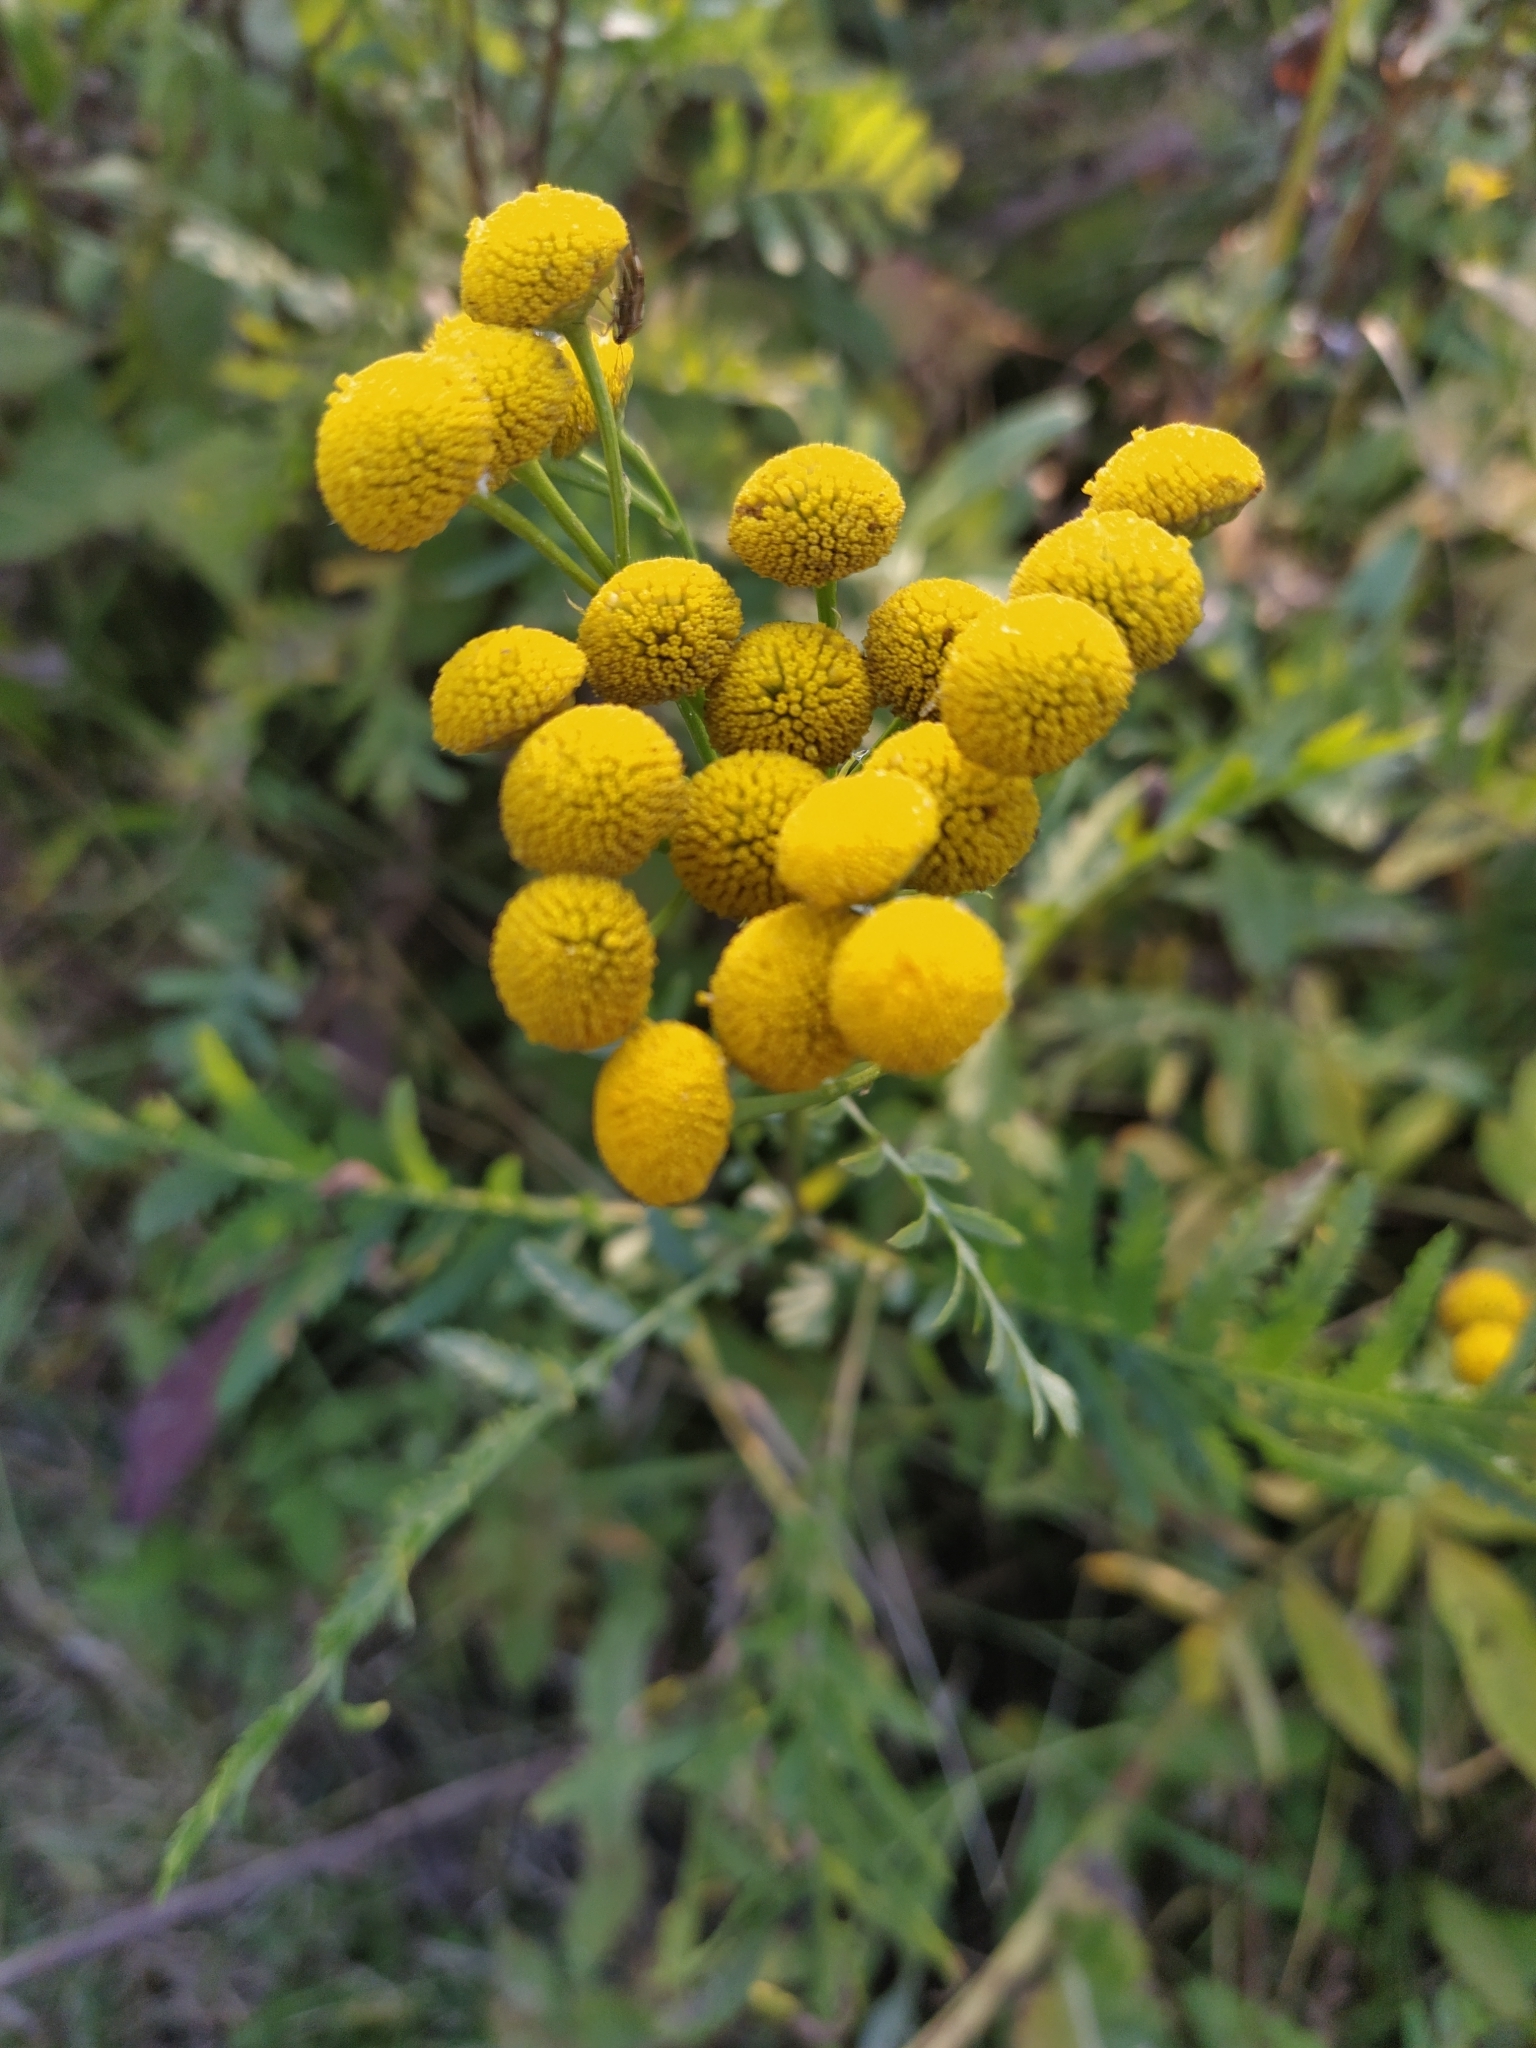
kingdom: Plantae
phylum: Tracheophyta
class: Magnoliopsida
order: Asterales
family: Asteraceae
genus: Tanacetum
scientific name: Tanacetum vulgare
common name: Common tansy
